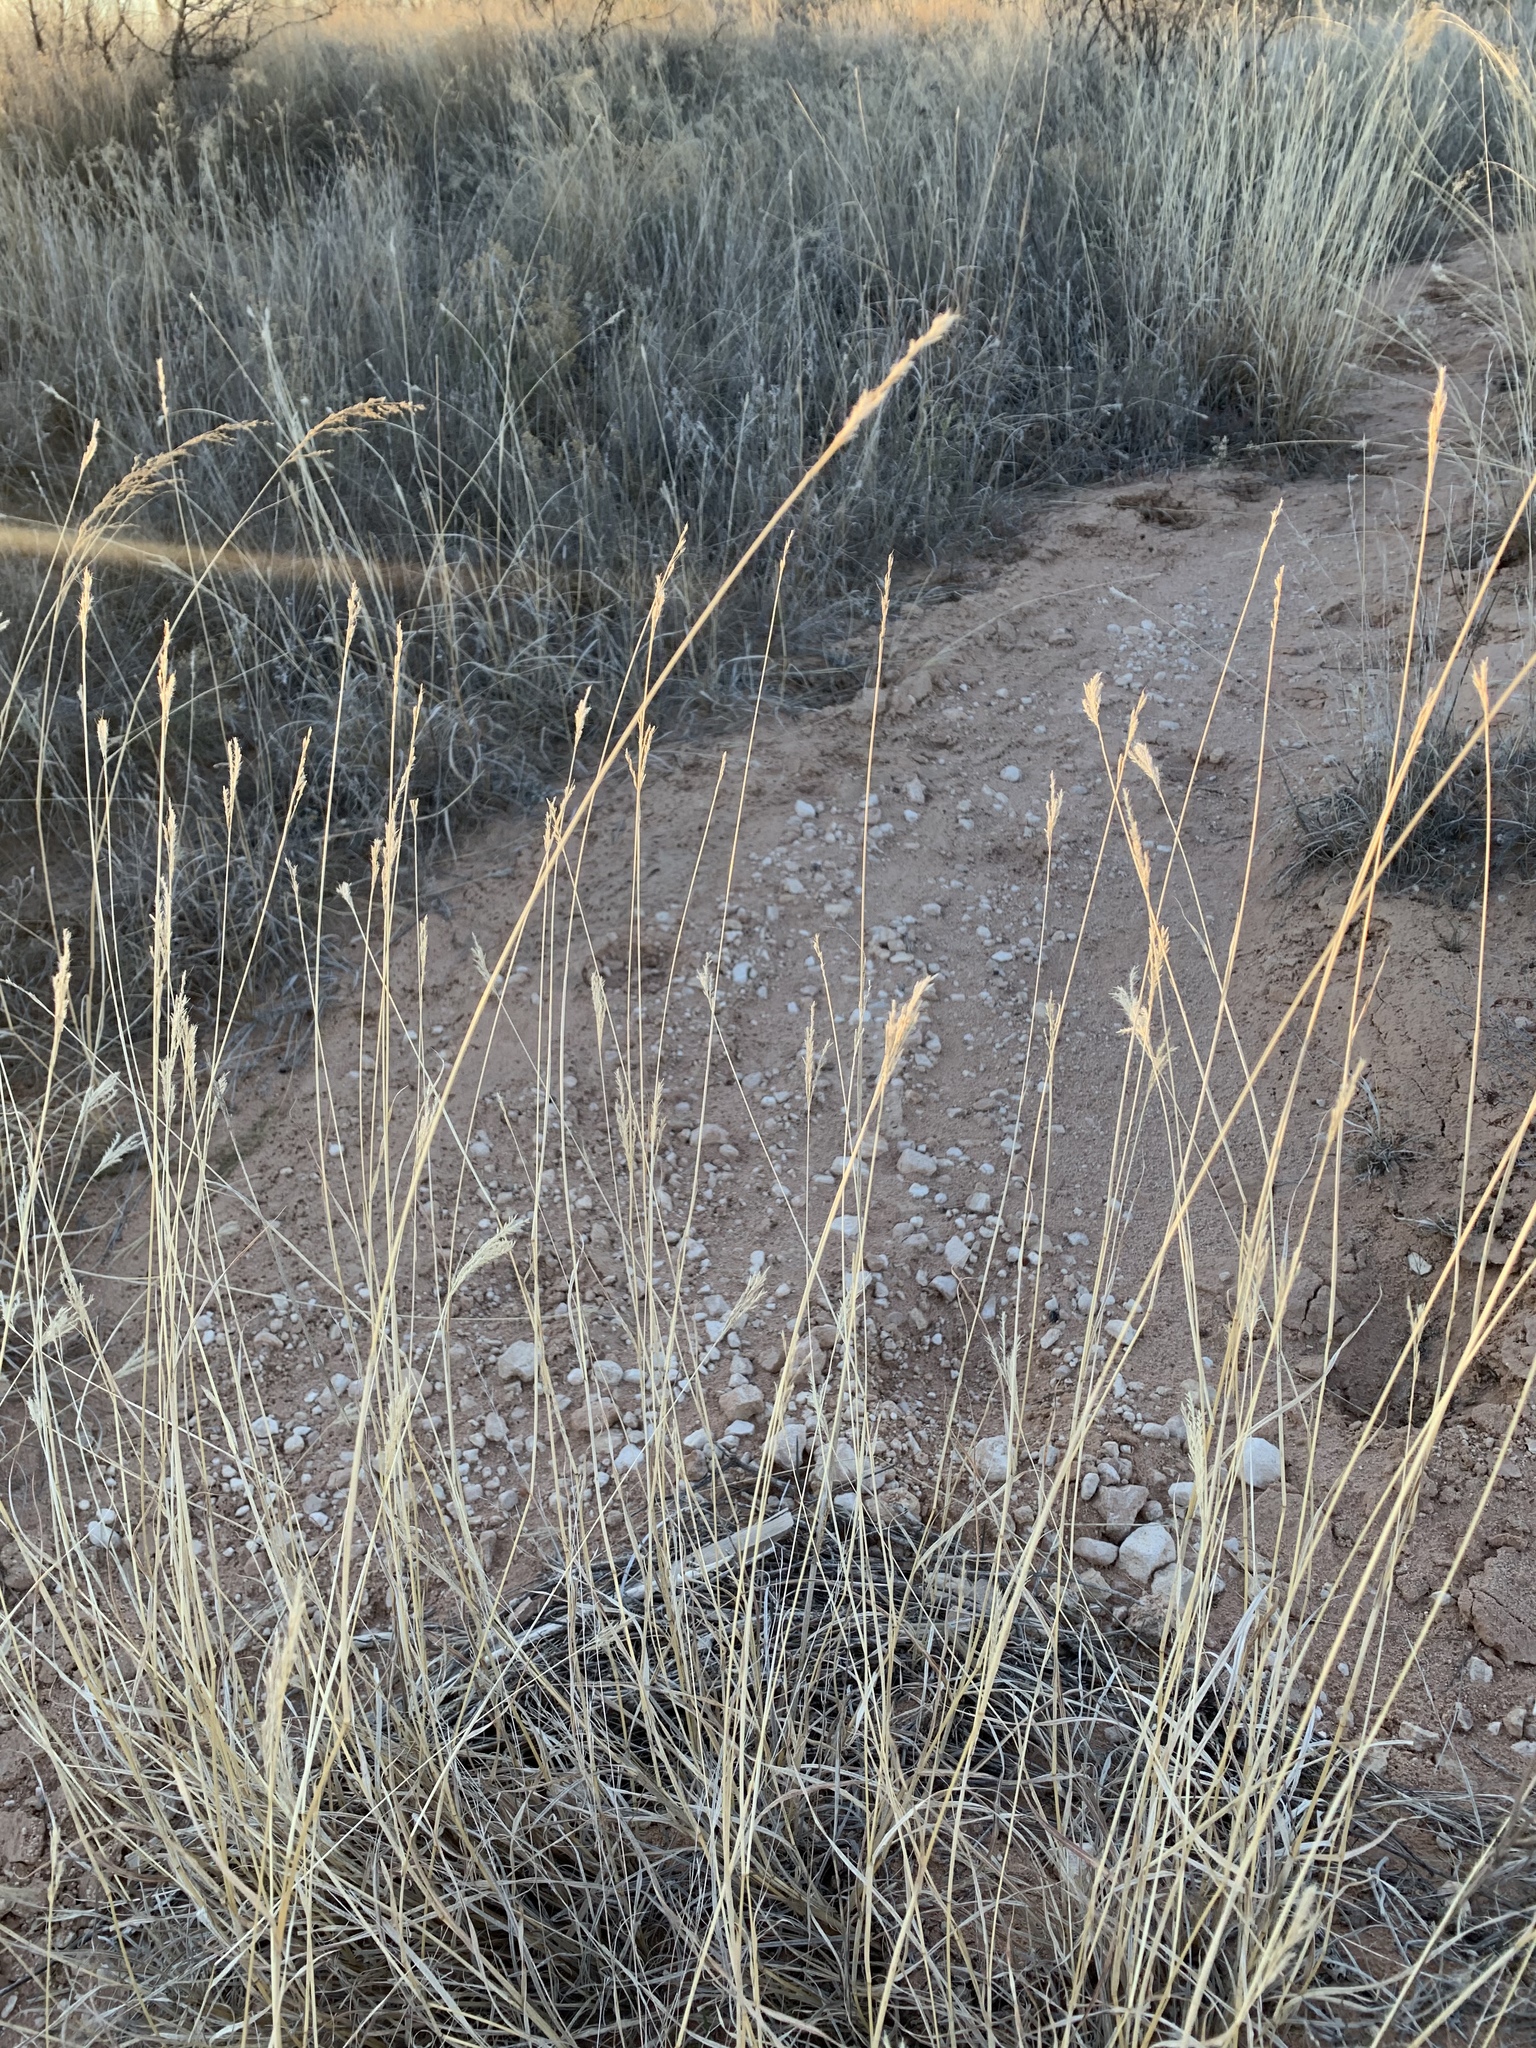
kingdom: Plantae
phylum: Tracheophyta
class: Liliopsida
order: Poales
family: Poaceae
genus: Bothriochloa
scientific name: Bothriochloa ischaemum
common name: Yellow bluestem
